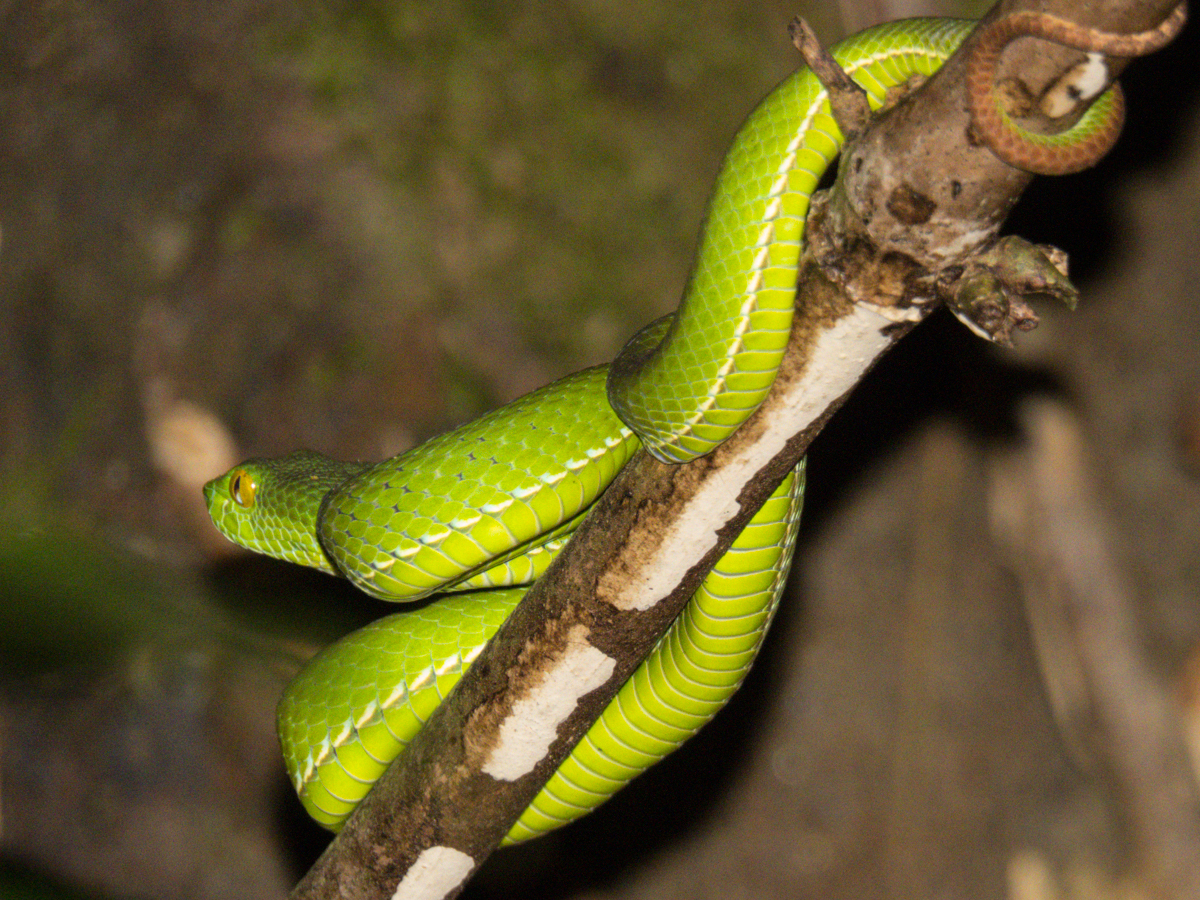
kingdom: Animalia
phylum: Chordata
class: Squamata
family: Viperidae
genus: Trimeresurus
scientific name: Trimeresurus cardamomensis
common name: Cardamom mountains green pitviper
